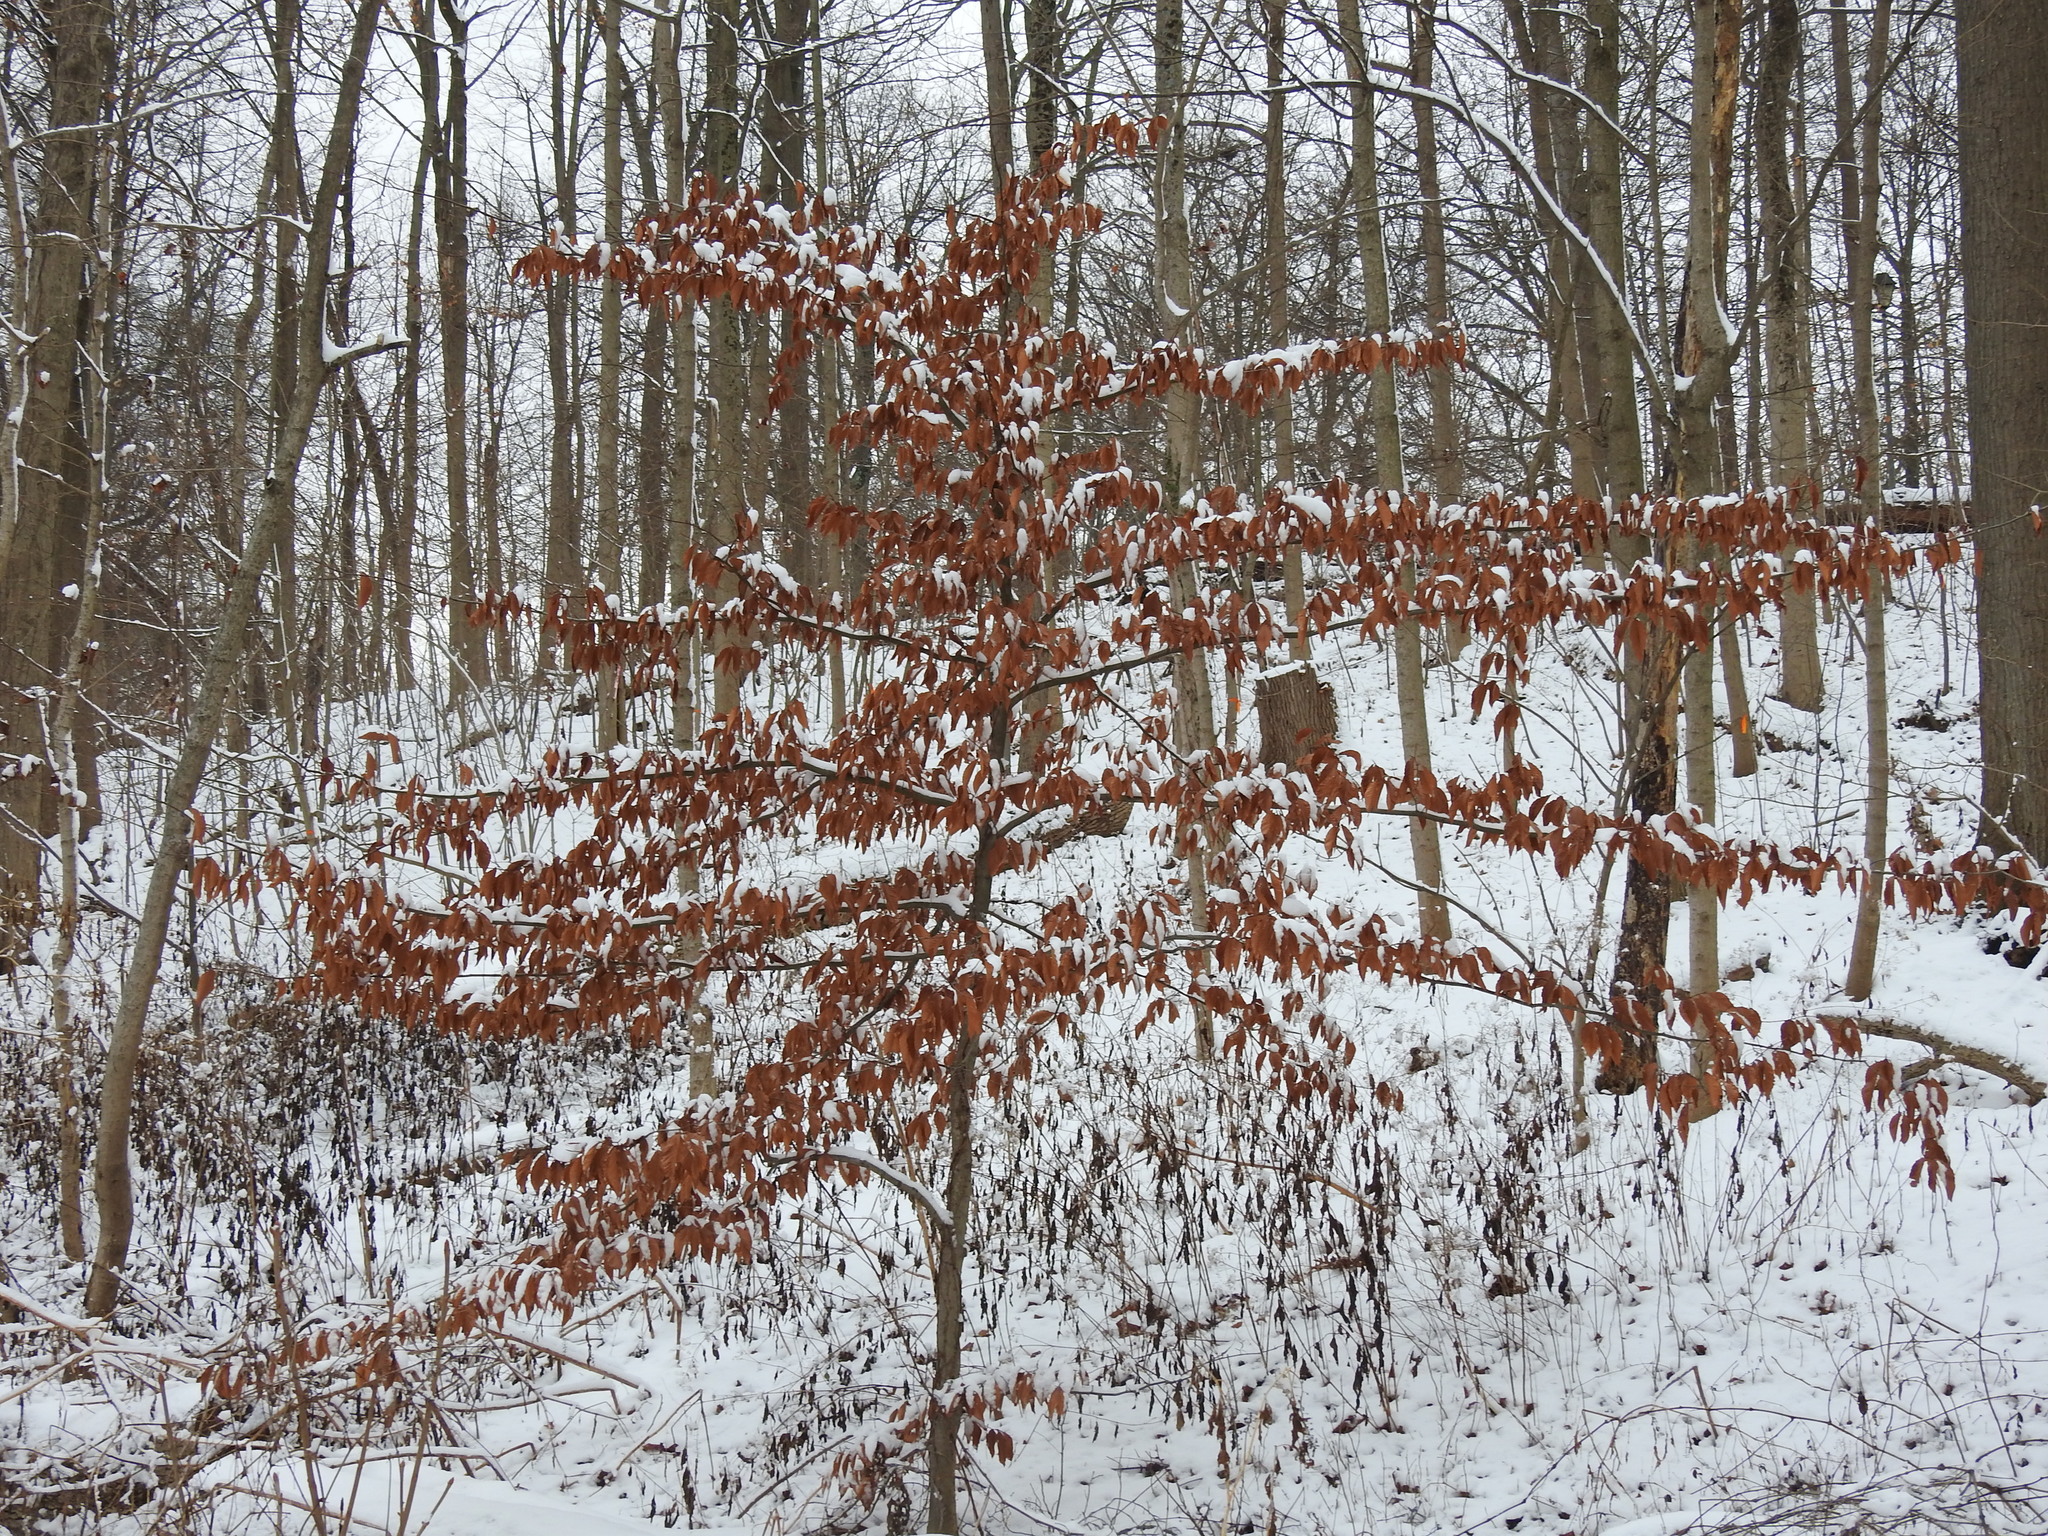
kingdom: Plantae
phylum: Tracheophyta
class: Magnoliopsida
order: Fagales
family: Fagaceae
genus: Fagus
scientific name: Fagus grandifolia
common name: American beech
